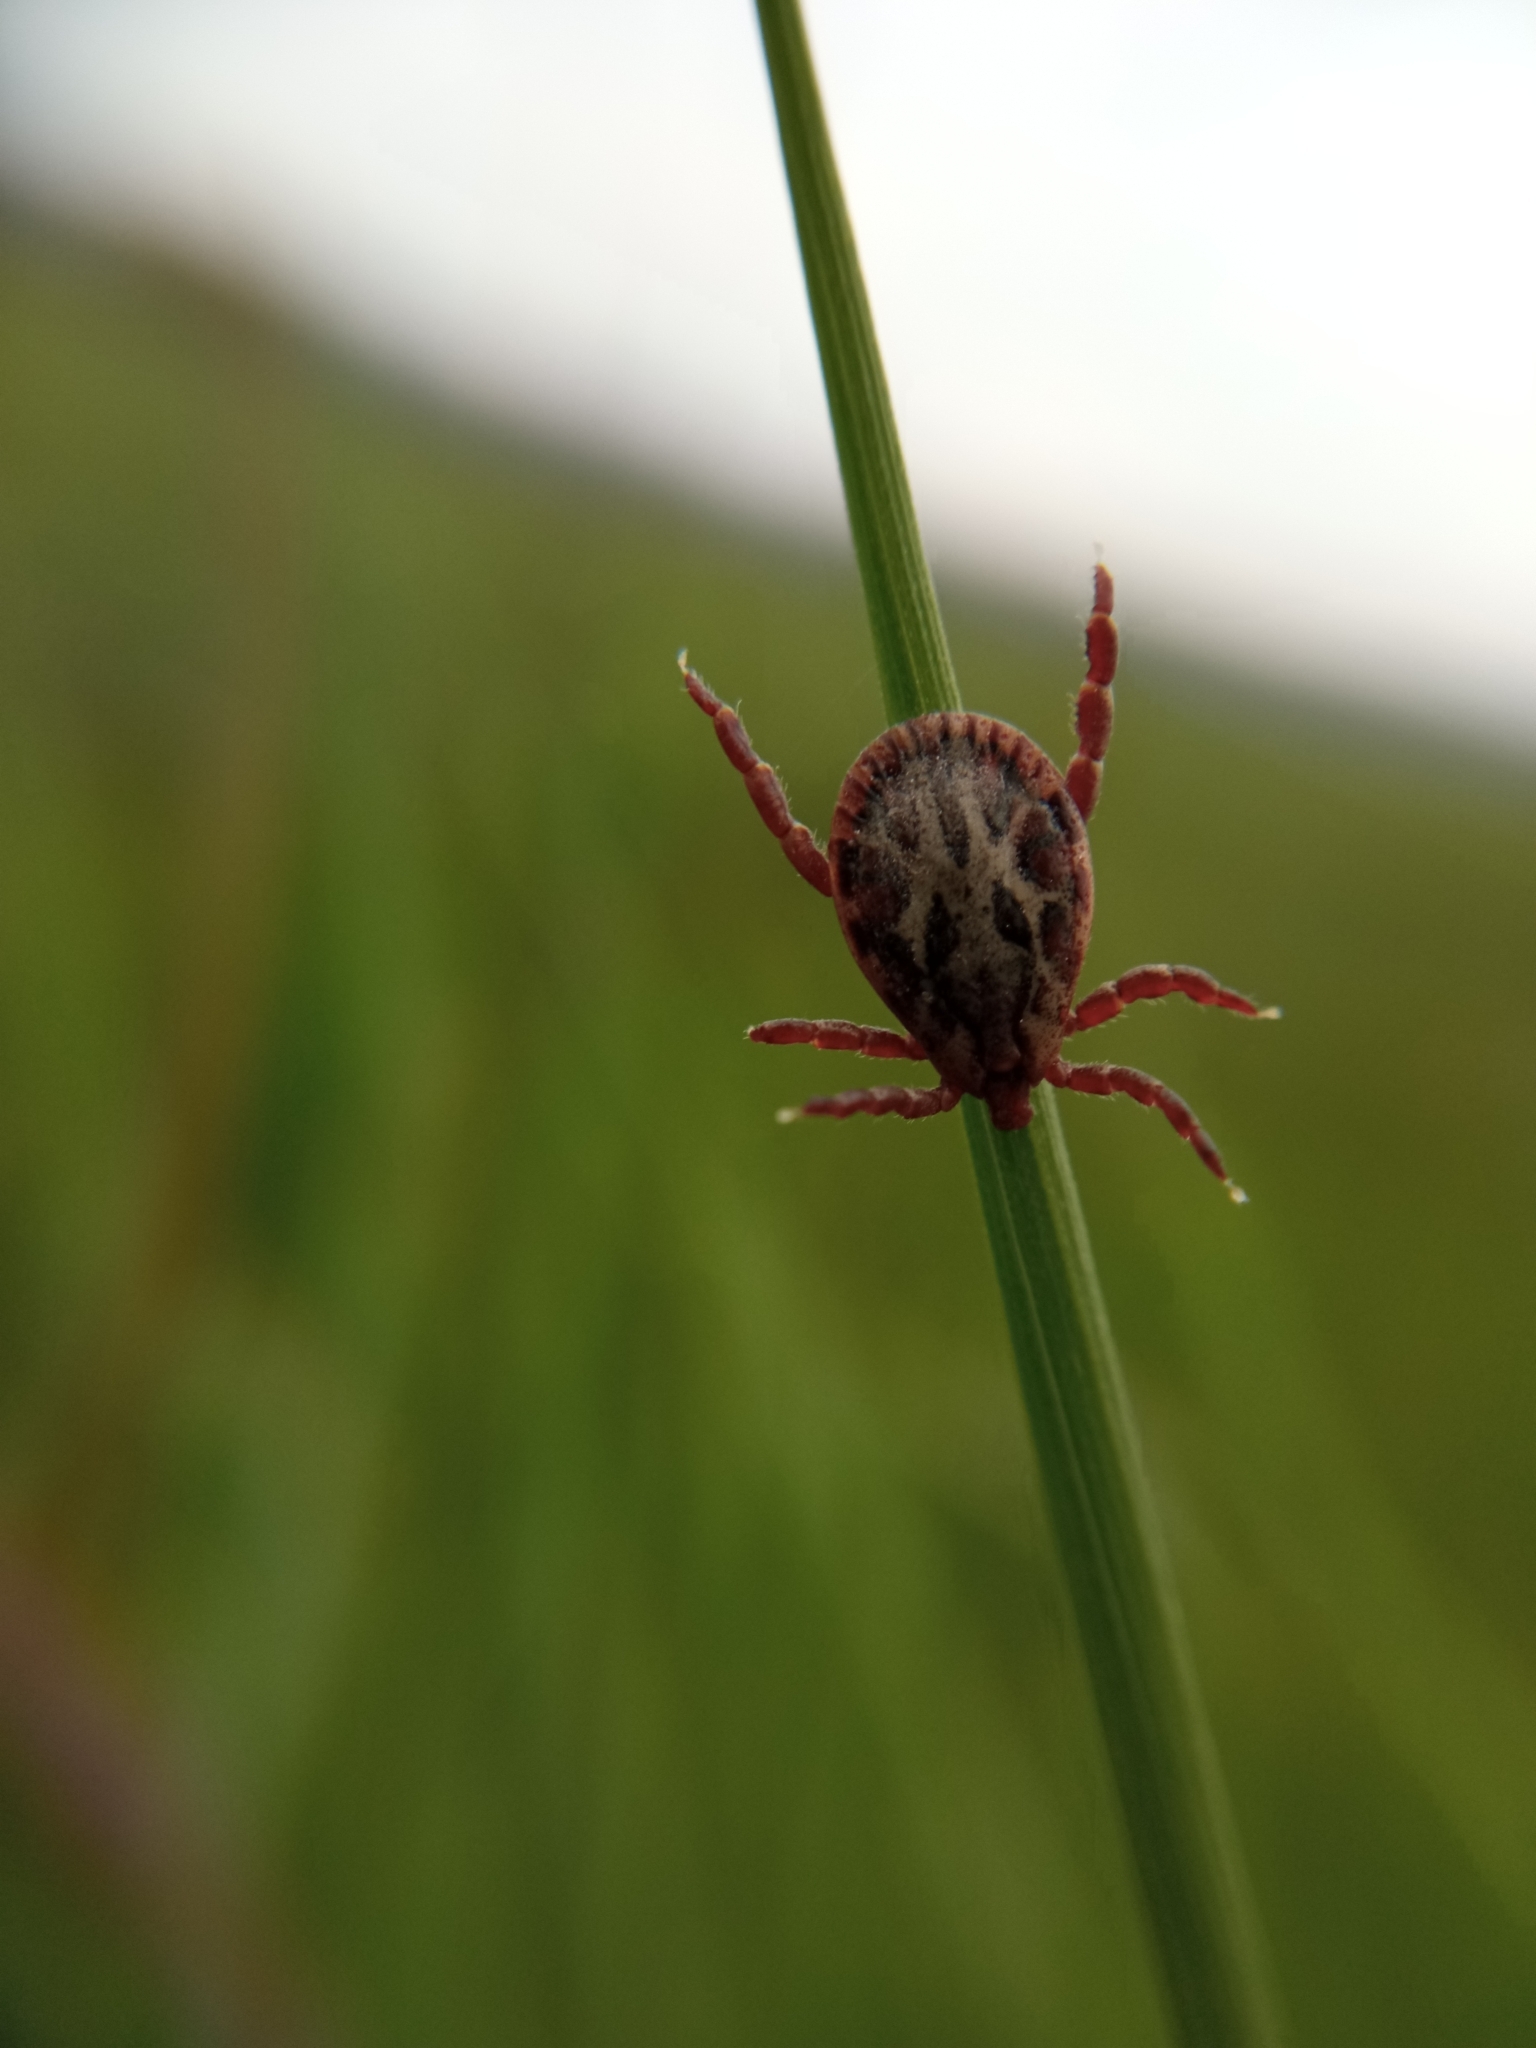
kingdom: Animalia
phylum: Arthropoda
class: Arachnida
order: Ixodida
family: Ixodidae
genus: Dermacentor
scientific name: Dermacentor marginatus
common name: Ornate sheep tick
